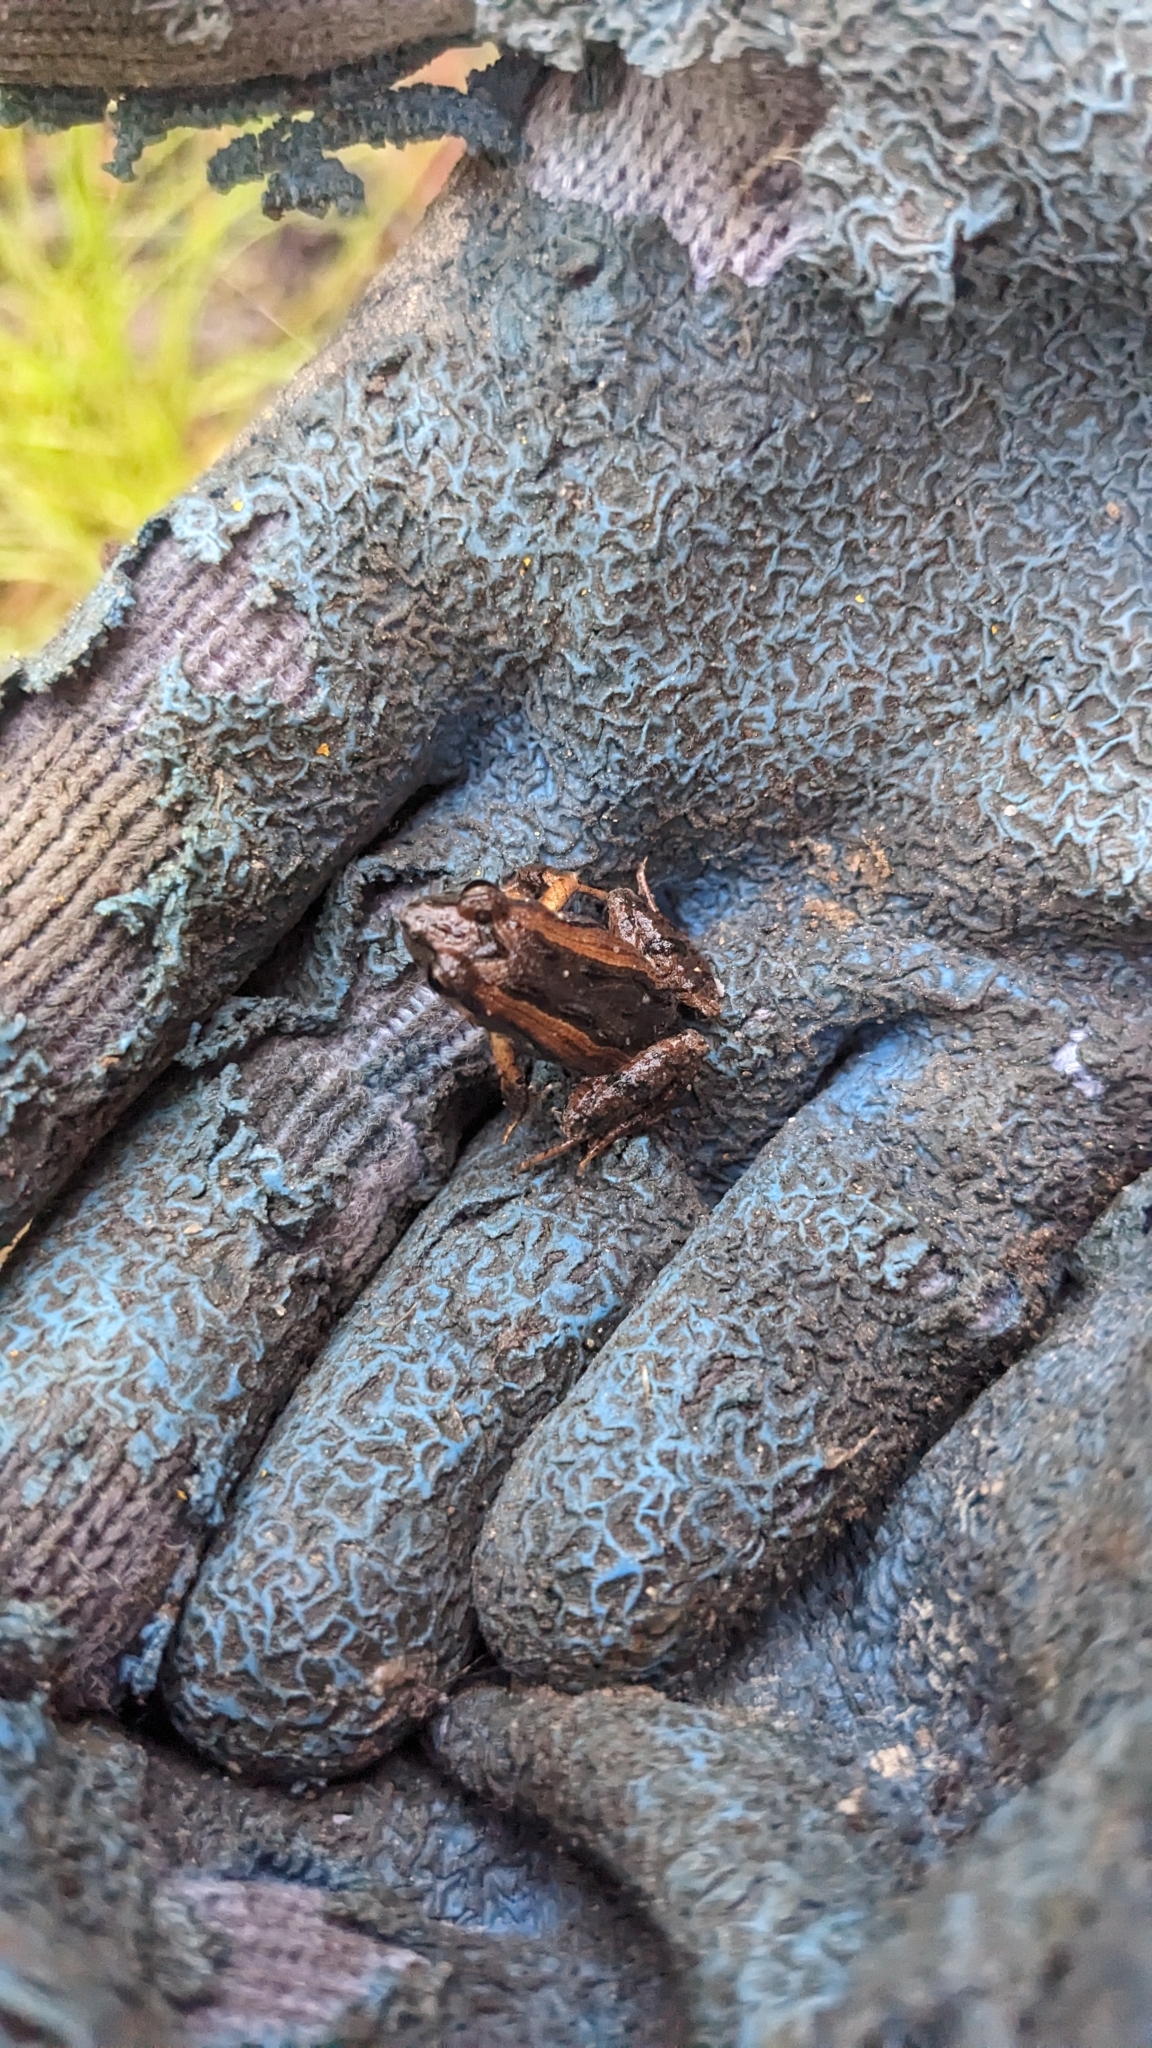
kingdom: Animalia
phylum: Chordata
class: Amphibia
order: Anura
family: Myobatrachidae
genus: Crinia
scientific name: Crinia signifera
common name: Brown froglet
